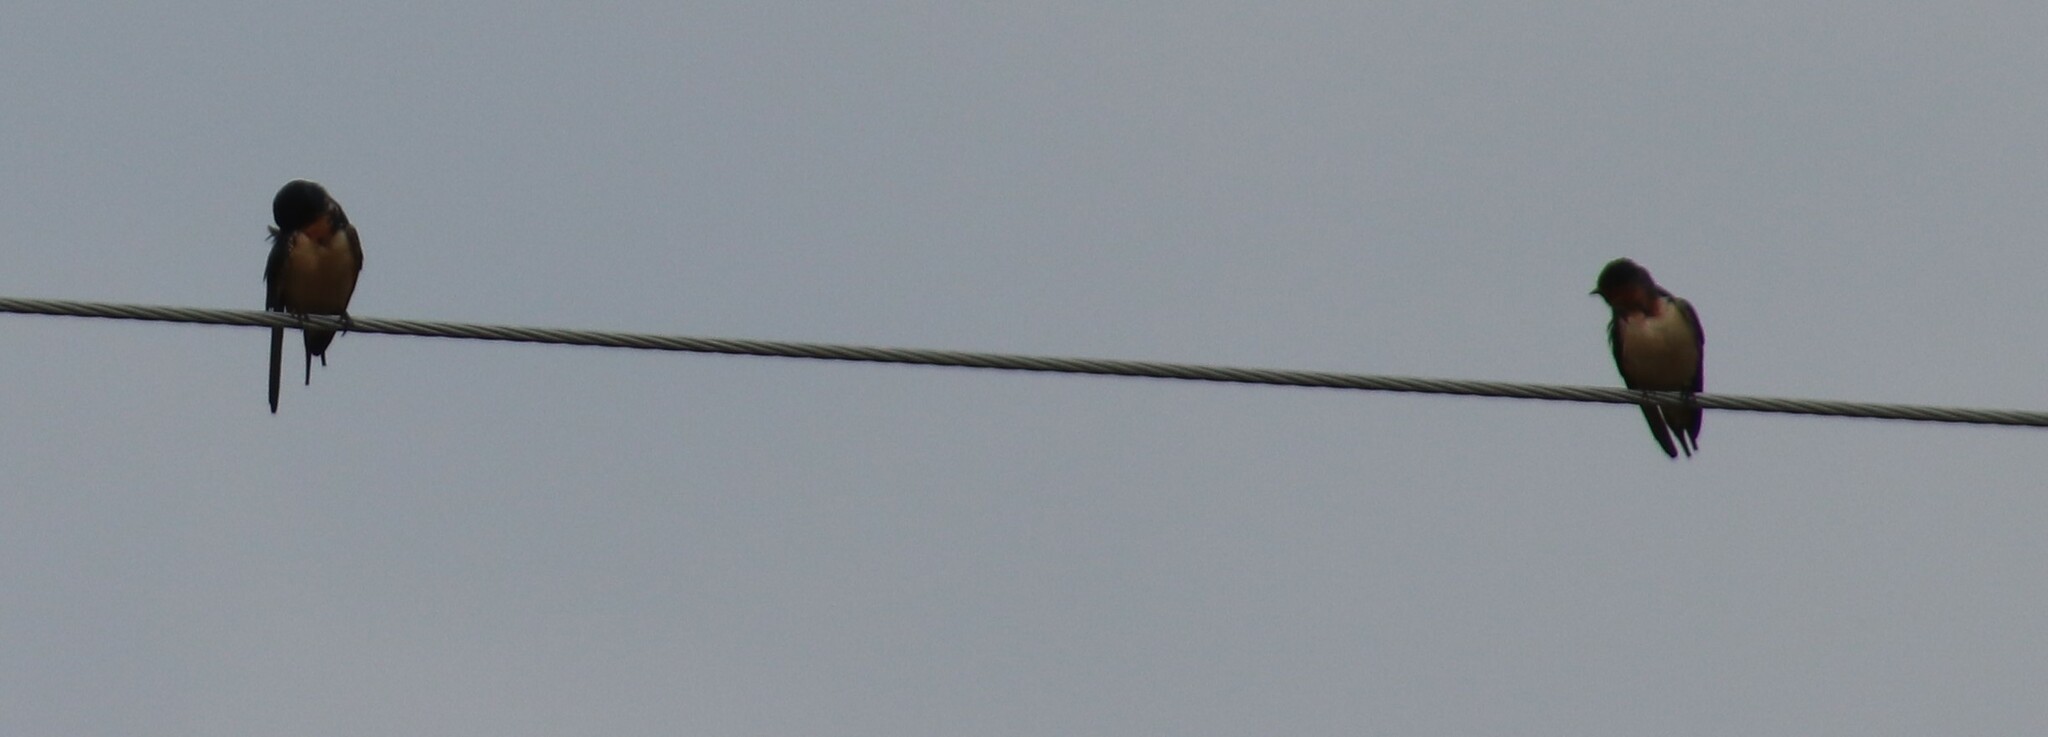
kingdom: Animalia
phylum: Chordata
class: Aves
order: Passeriformes
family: Hirundinidae
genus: Hirundo
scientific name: Hirundo rustica
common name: Barn swallow
